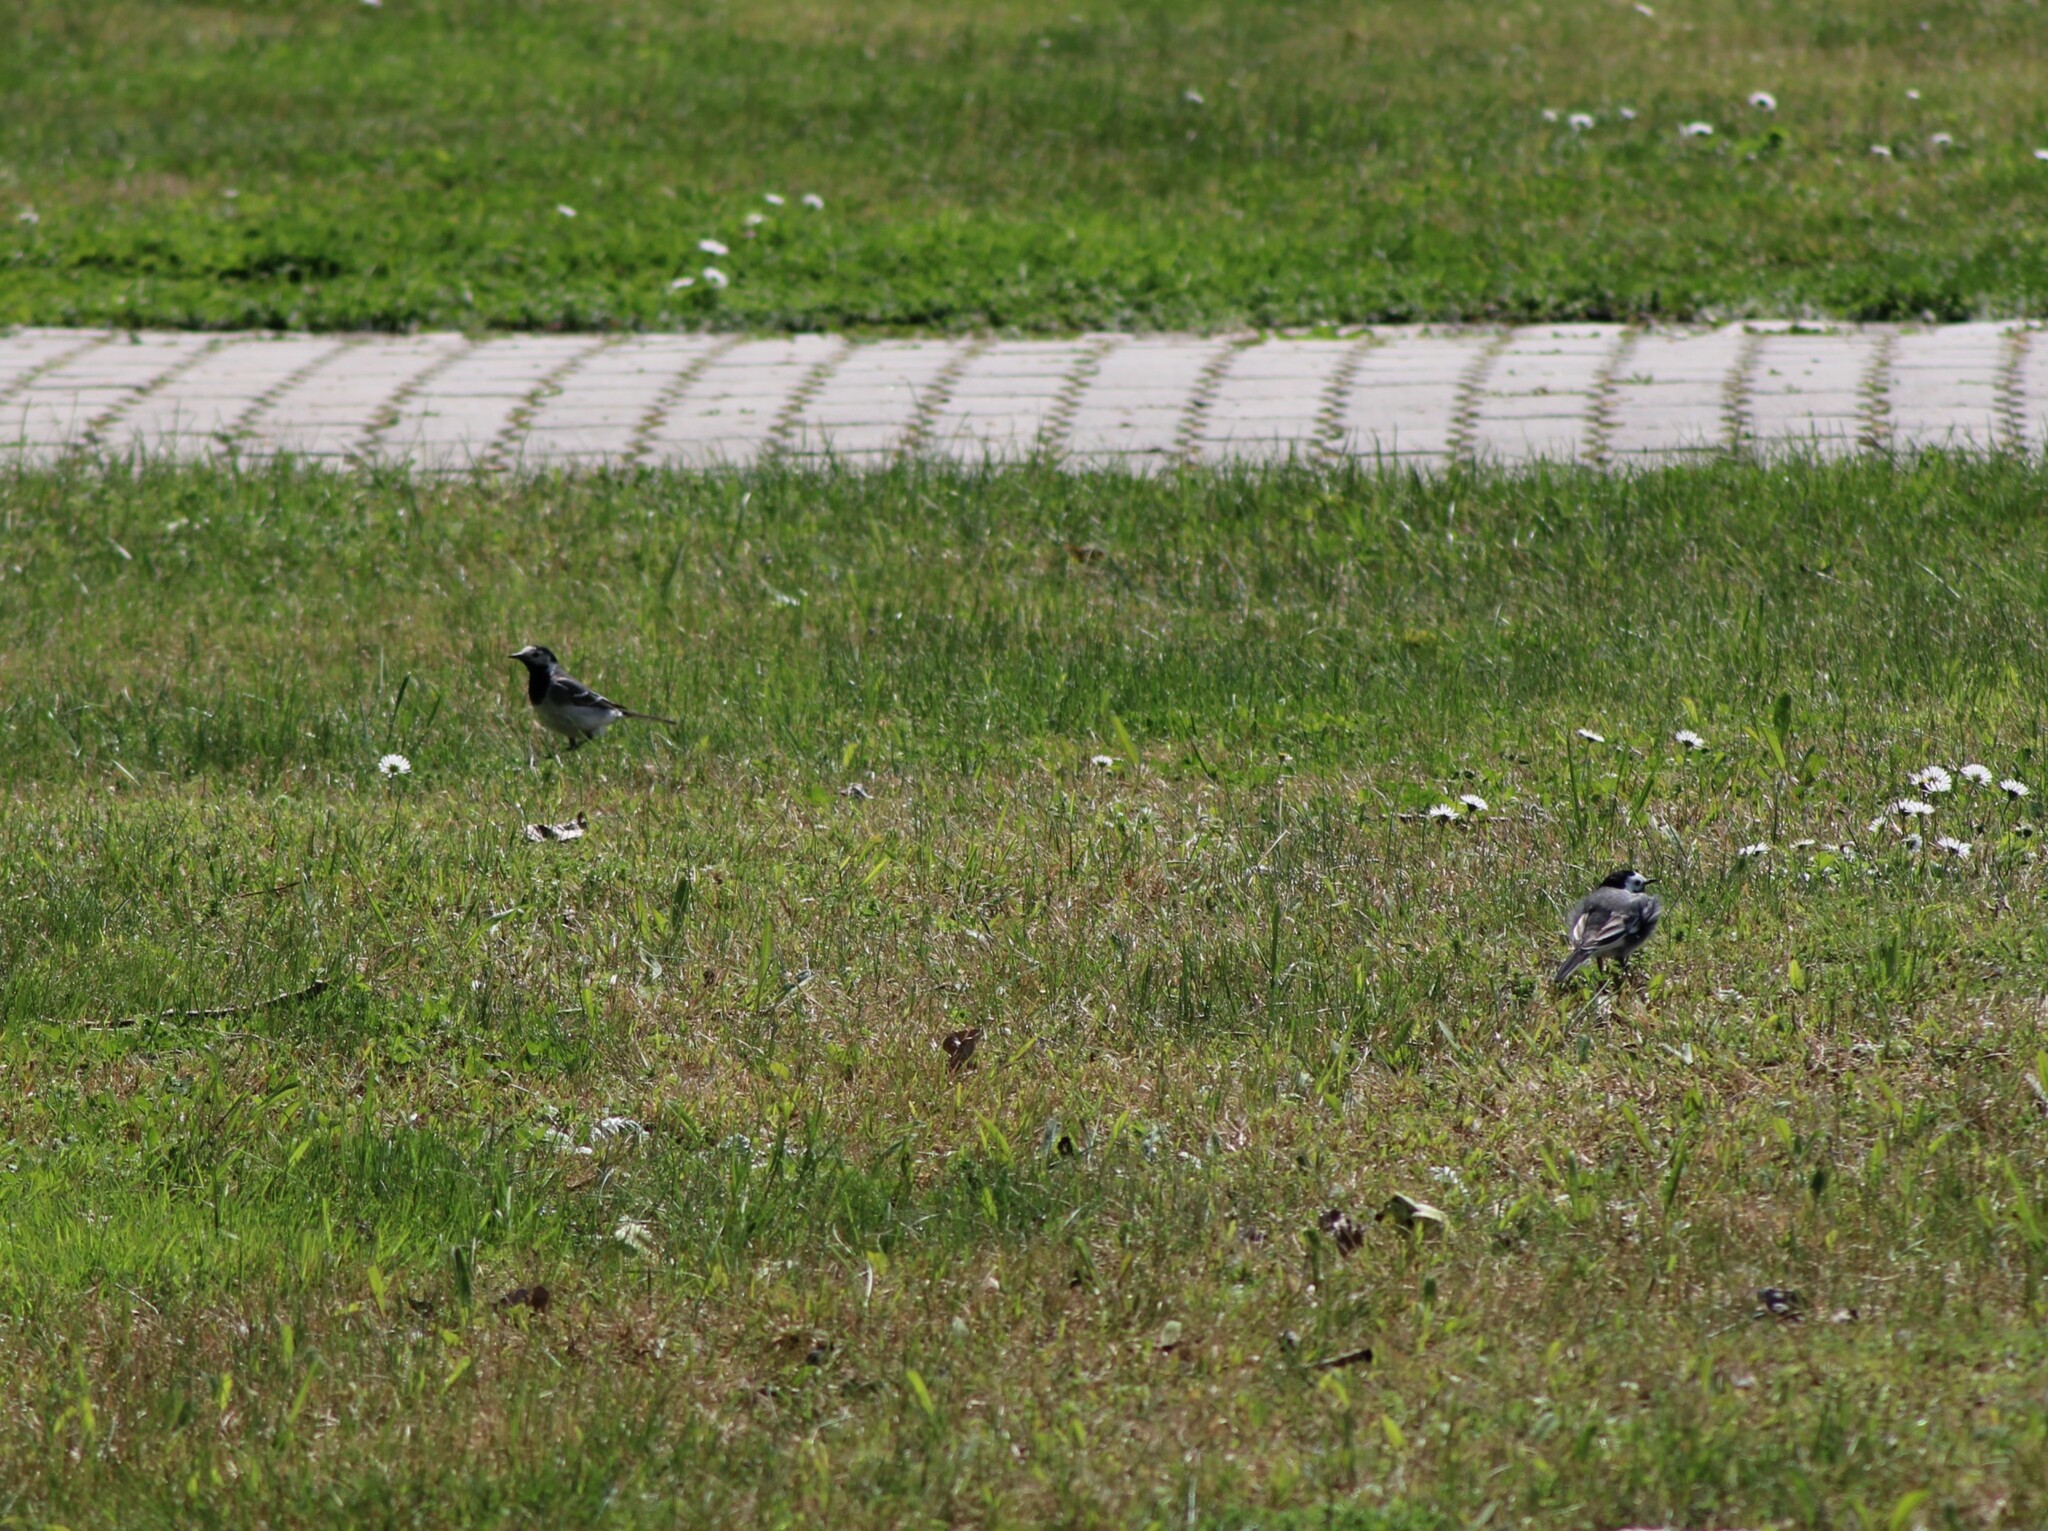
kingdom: Animalia
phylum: Chordata
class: Aves
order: Passeriformes
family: Motacillidae
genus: Motacilla
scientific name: Motacilla alba
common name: White wagtail
